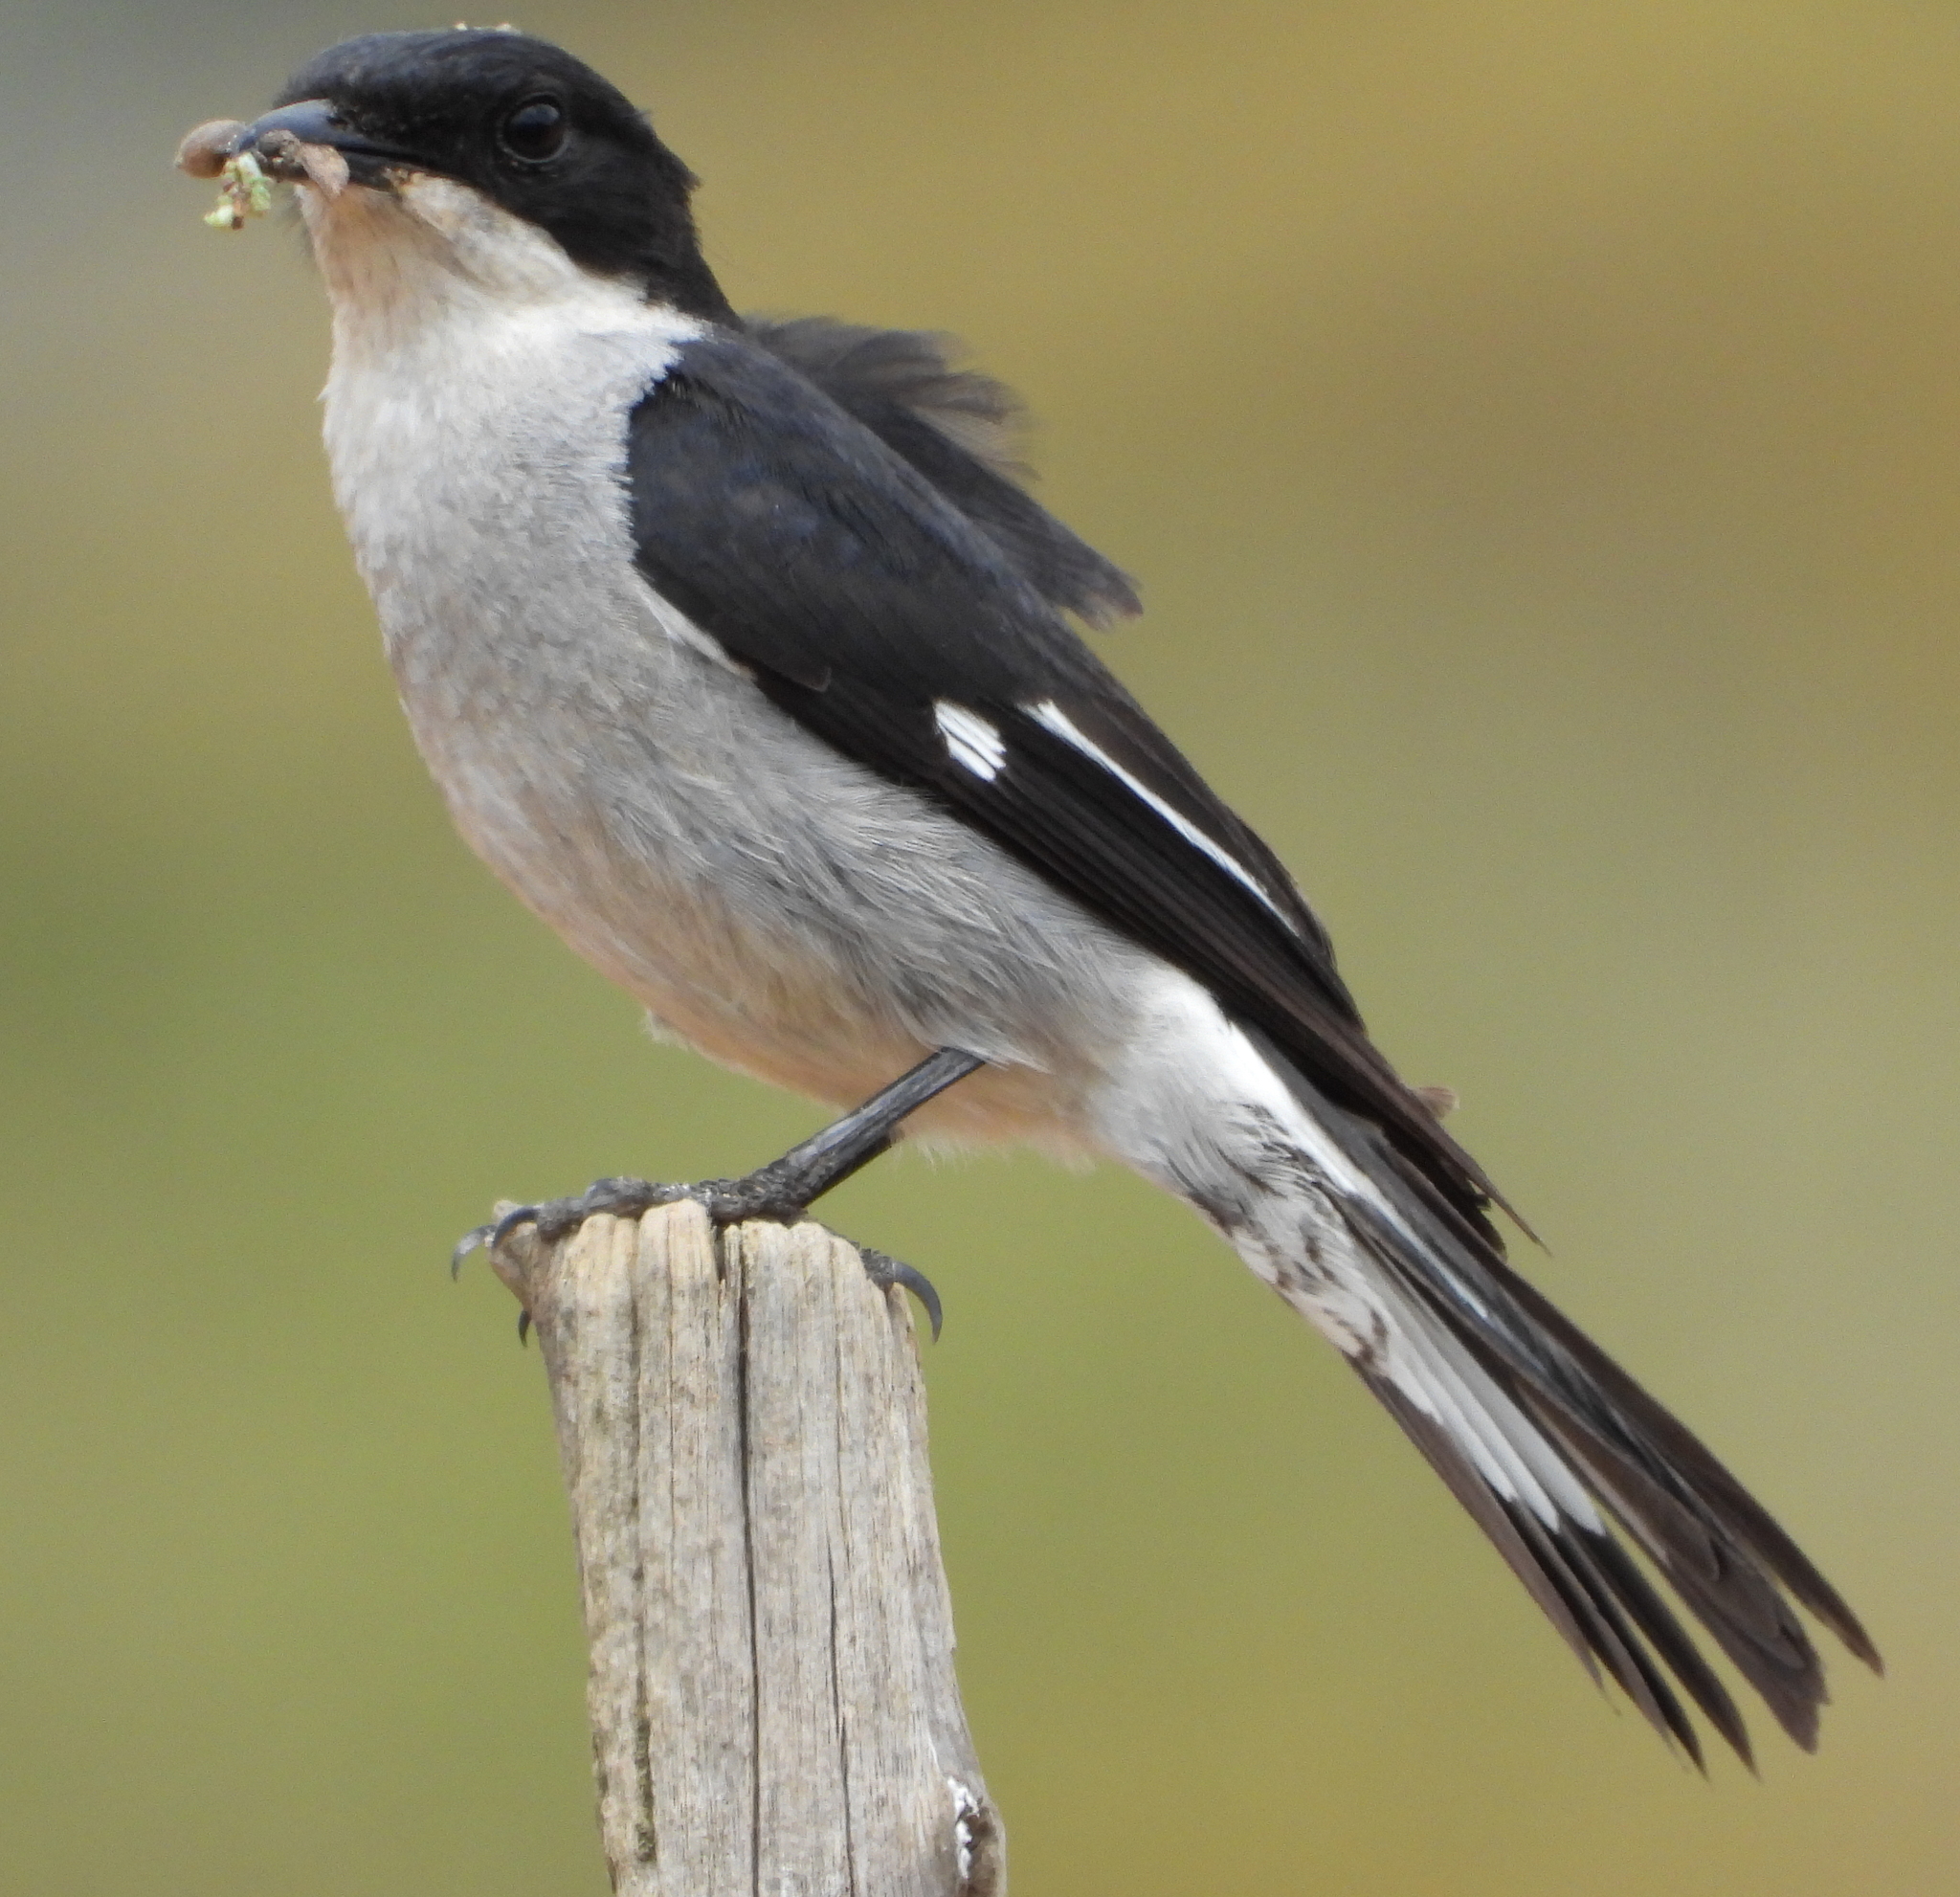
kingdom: Animalia
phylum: Chordata
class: Aves
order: Passeriformes
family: Muscicapidae
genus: Sigelus
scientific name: Sigelus silens
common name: Fiscal flycatcher
